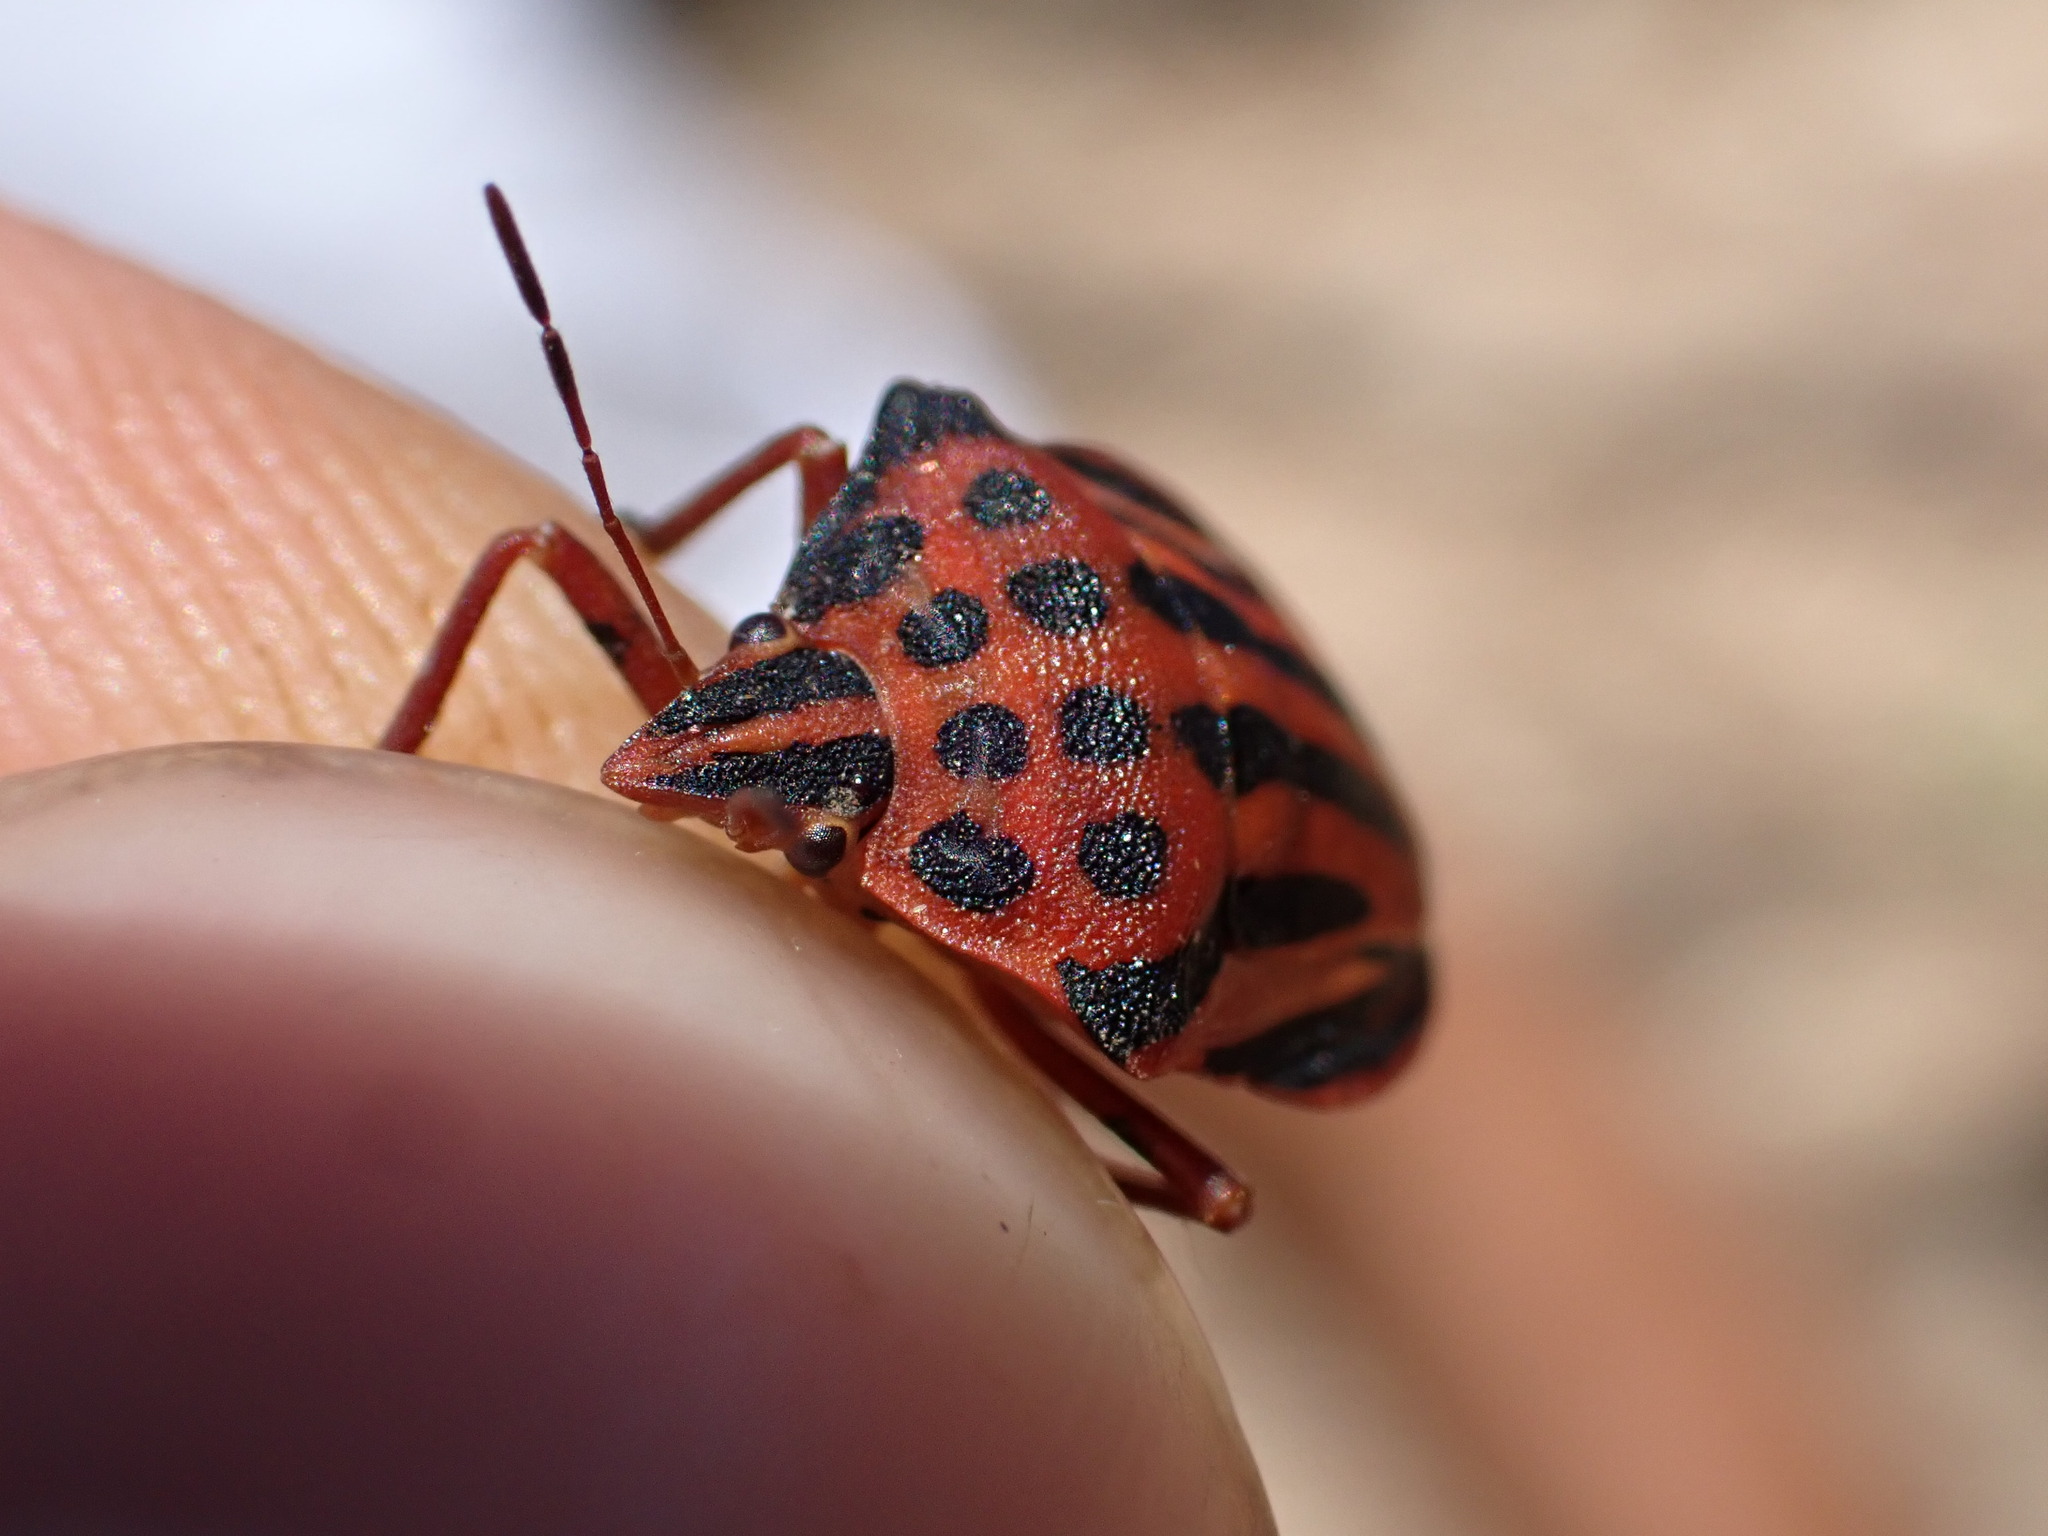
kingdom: Animalia
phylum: Arthropoda
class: Insecta
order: Hemiptera
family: Pentatomidae
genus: Graphosoma
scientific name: Graphosoma semipunctatum
